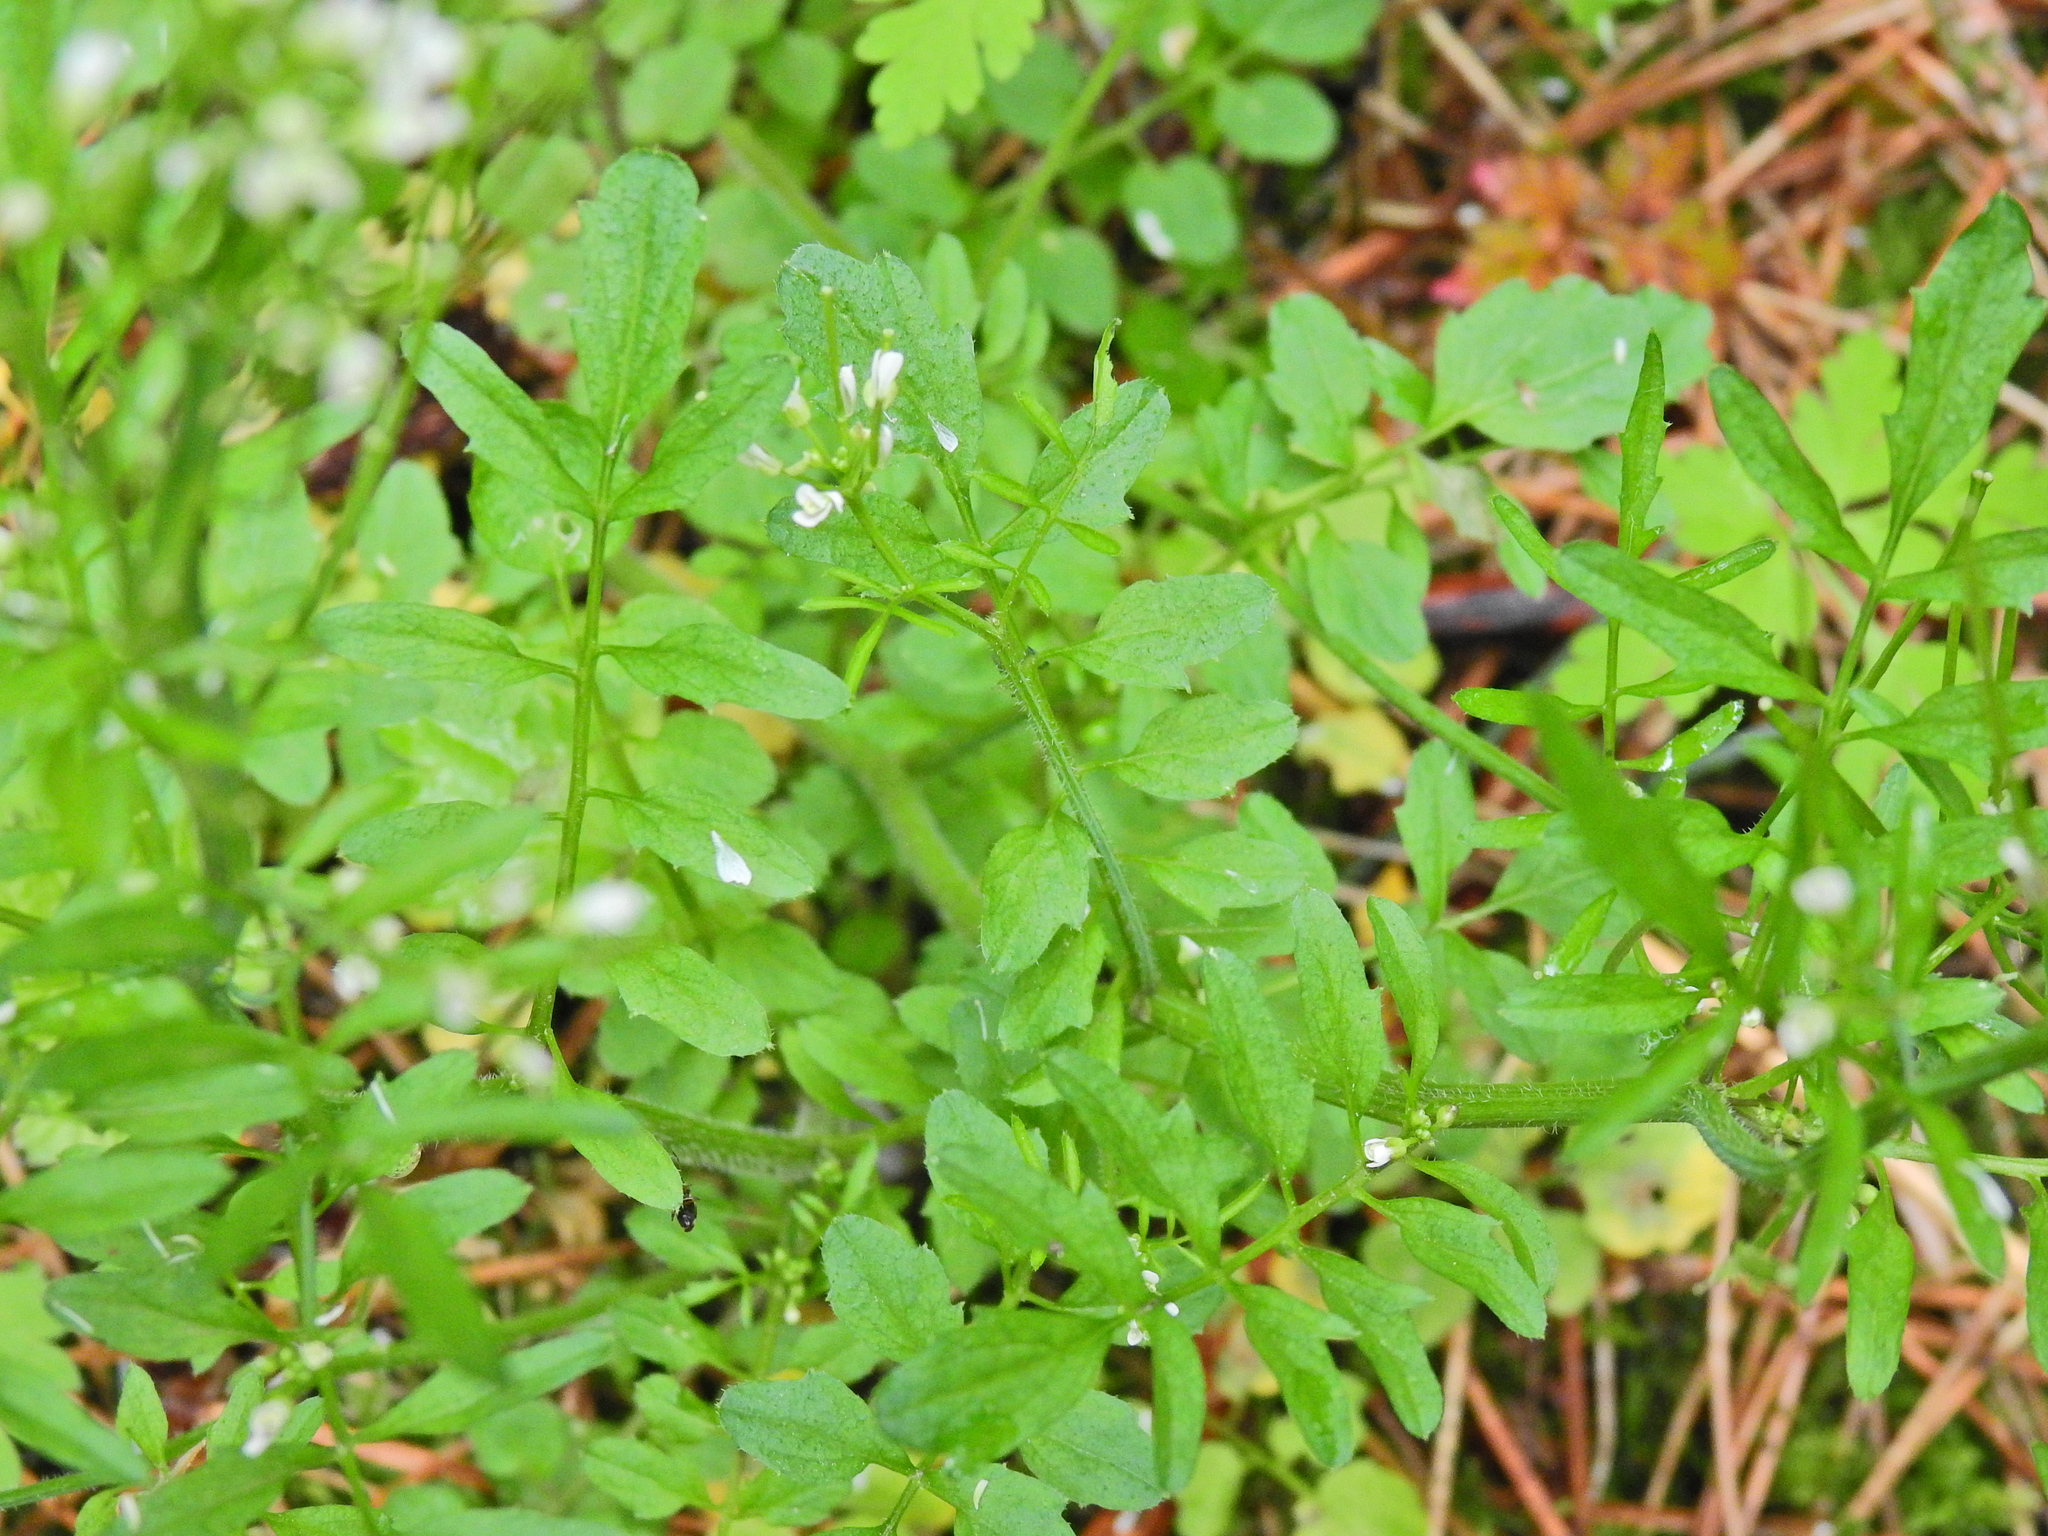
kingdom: Plantae
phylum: Tracheophyta
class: Magnoliopsida
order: Brassicales
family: Brassicaceae
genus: Cardamine
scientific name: Cardamine flexuosa
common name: Woodland bittercress
